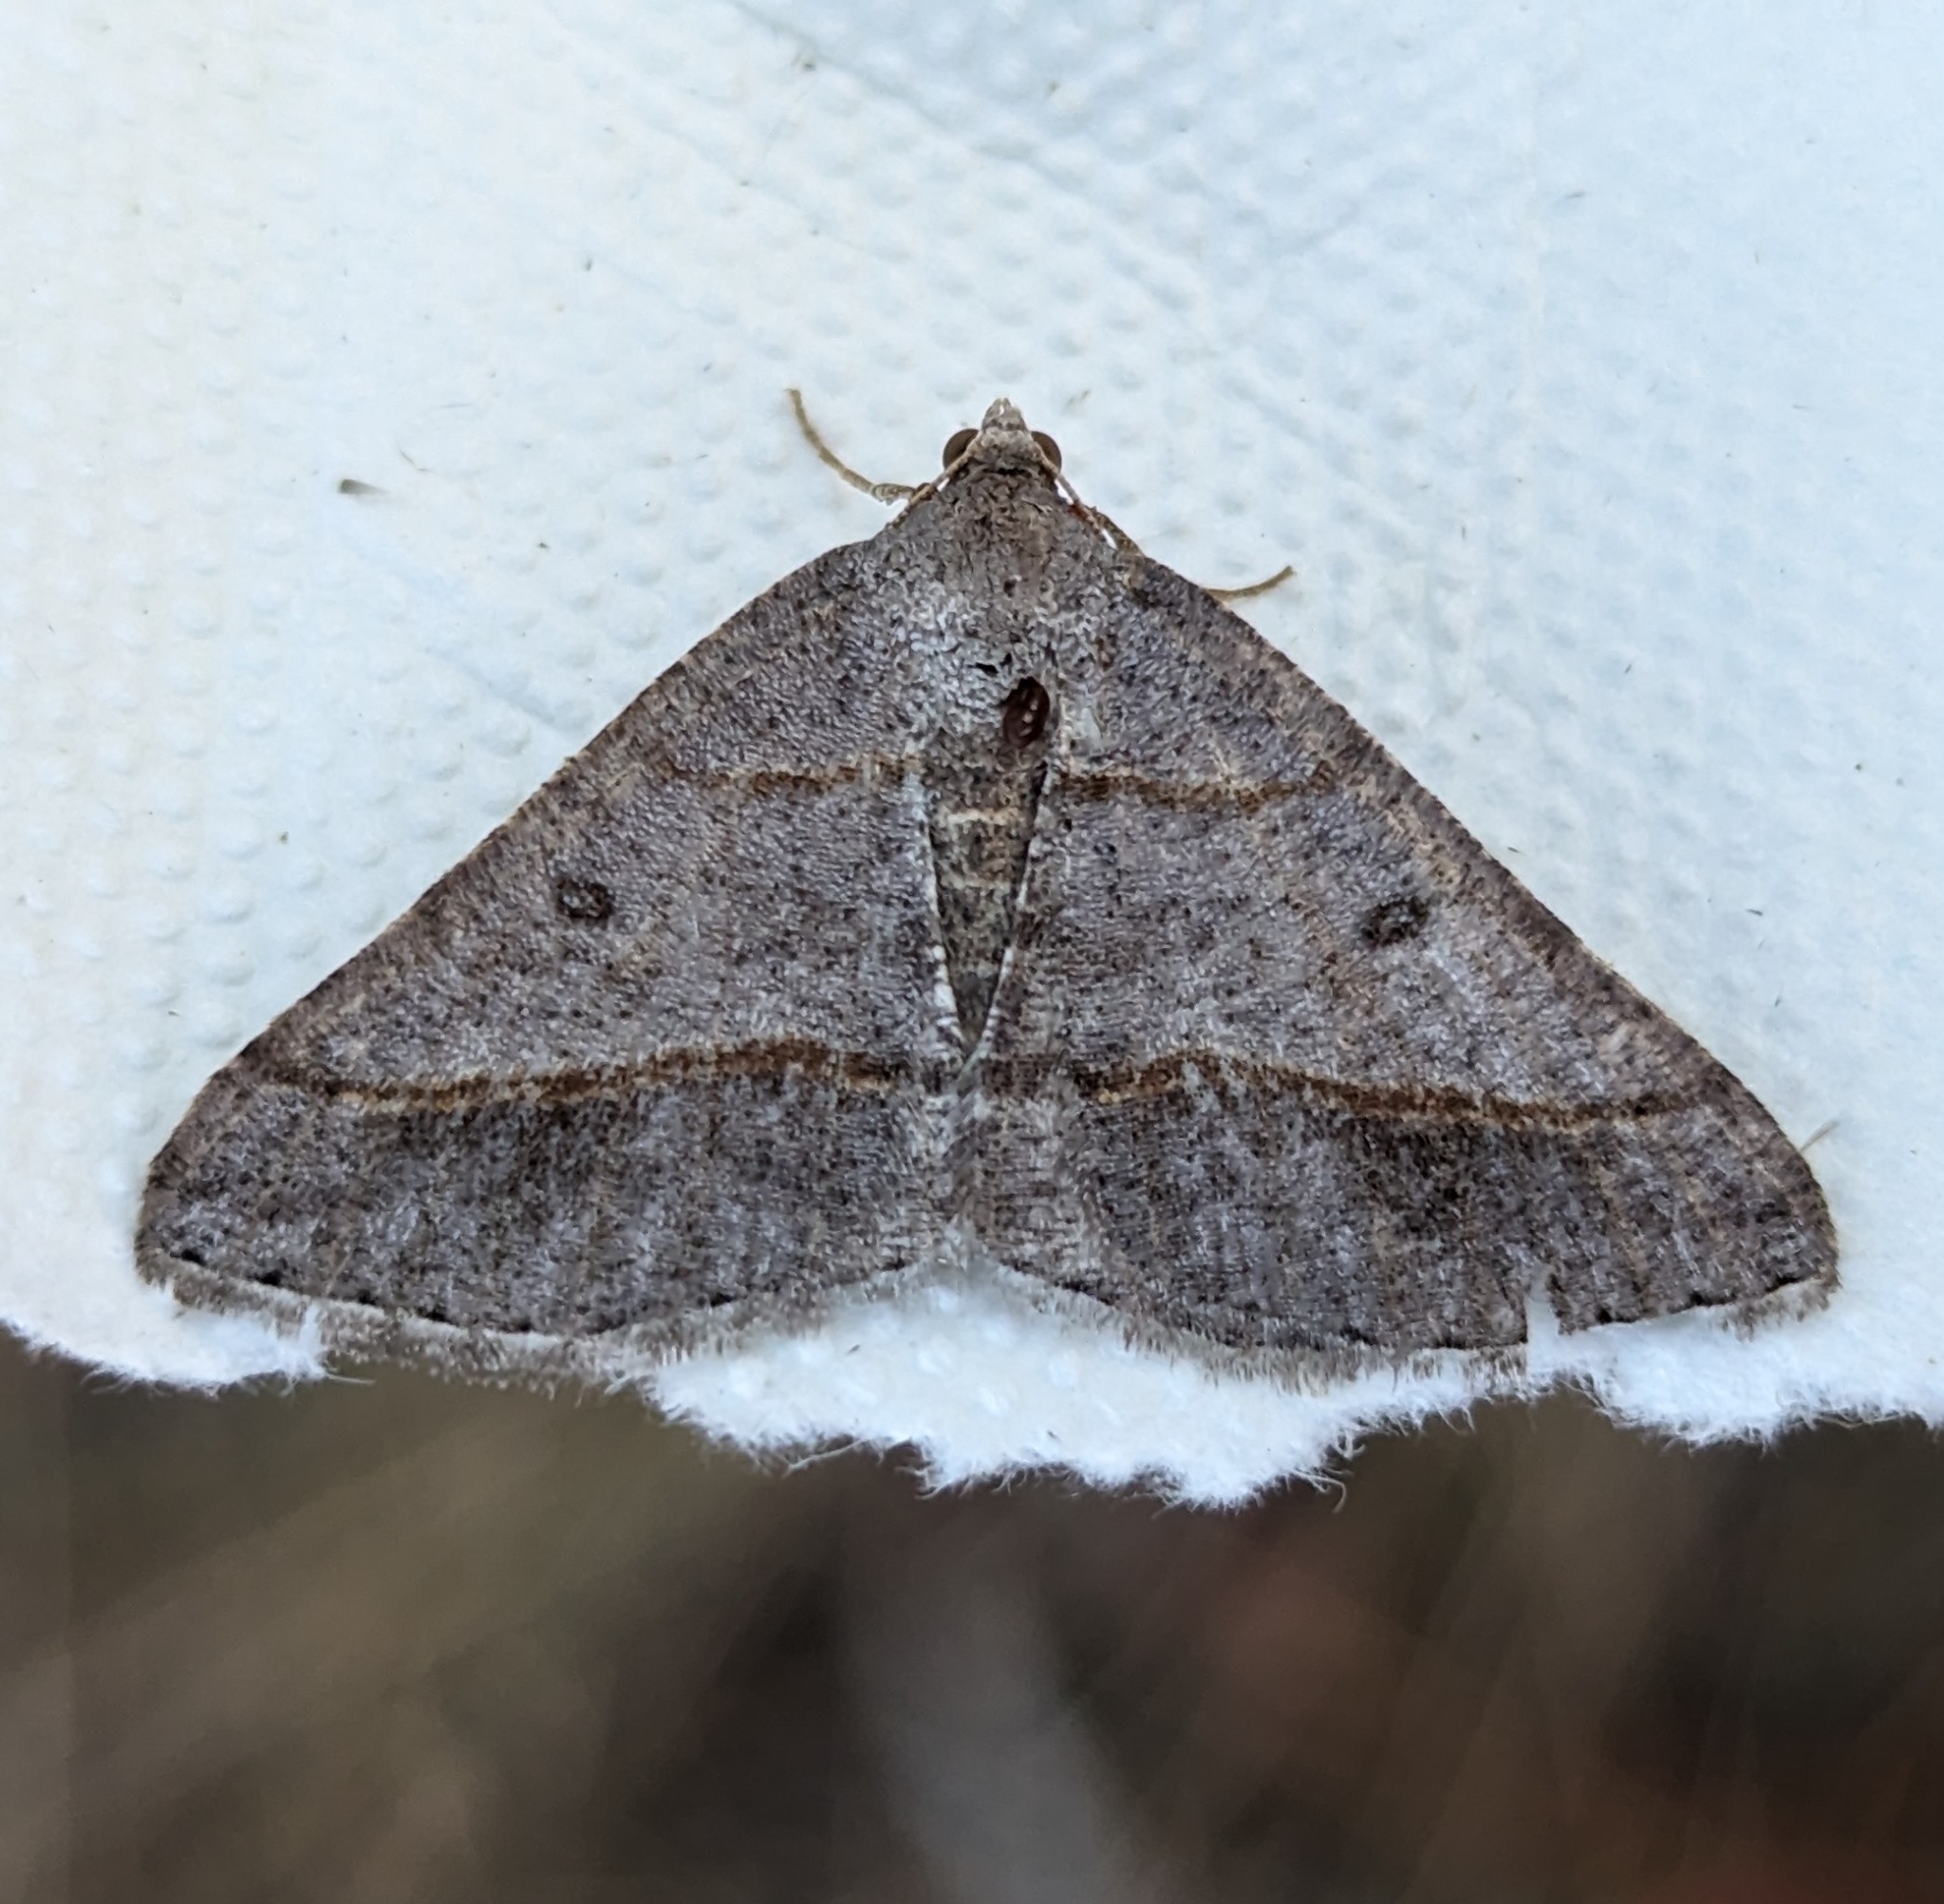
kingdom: Animalia
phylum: Arthropoda
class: Insecta
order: Lepidoptera
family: Geometridae
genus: Digrammia
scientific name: Digrammia neptaria
